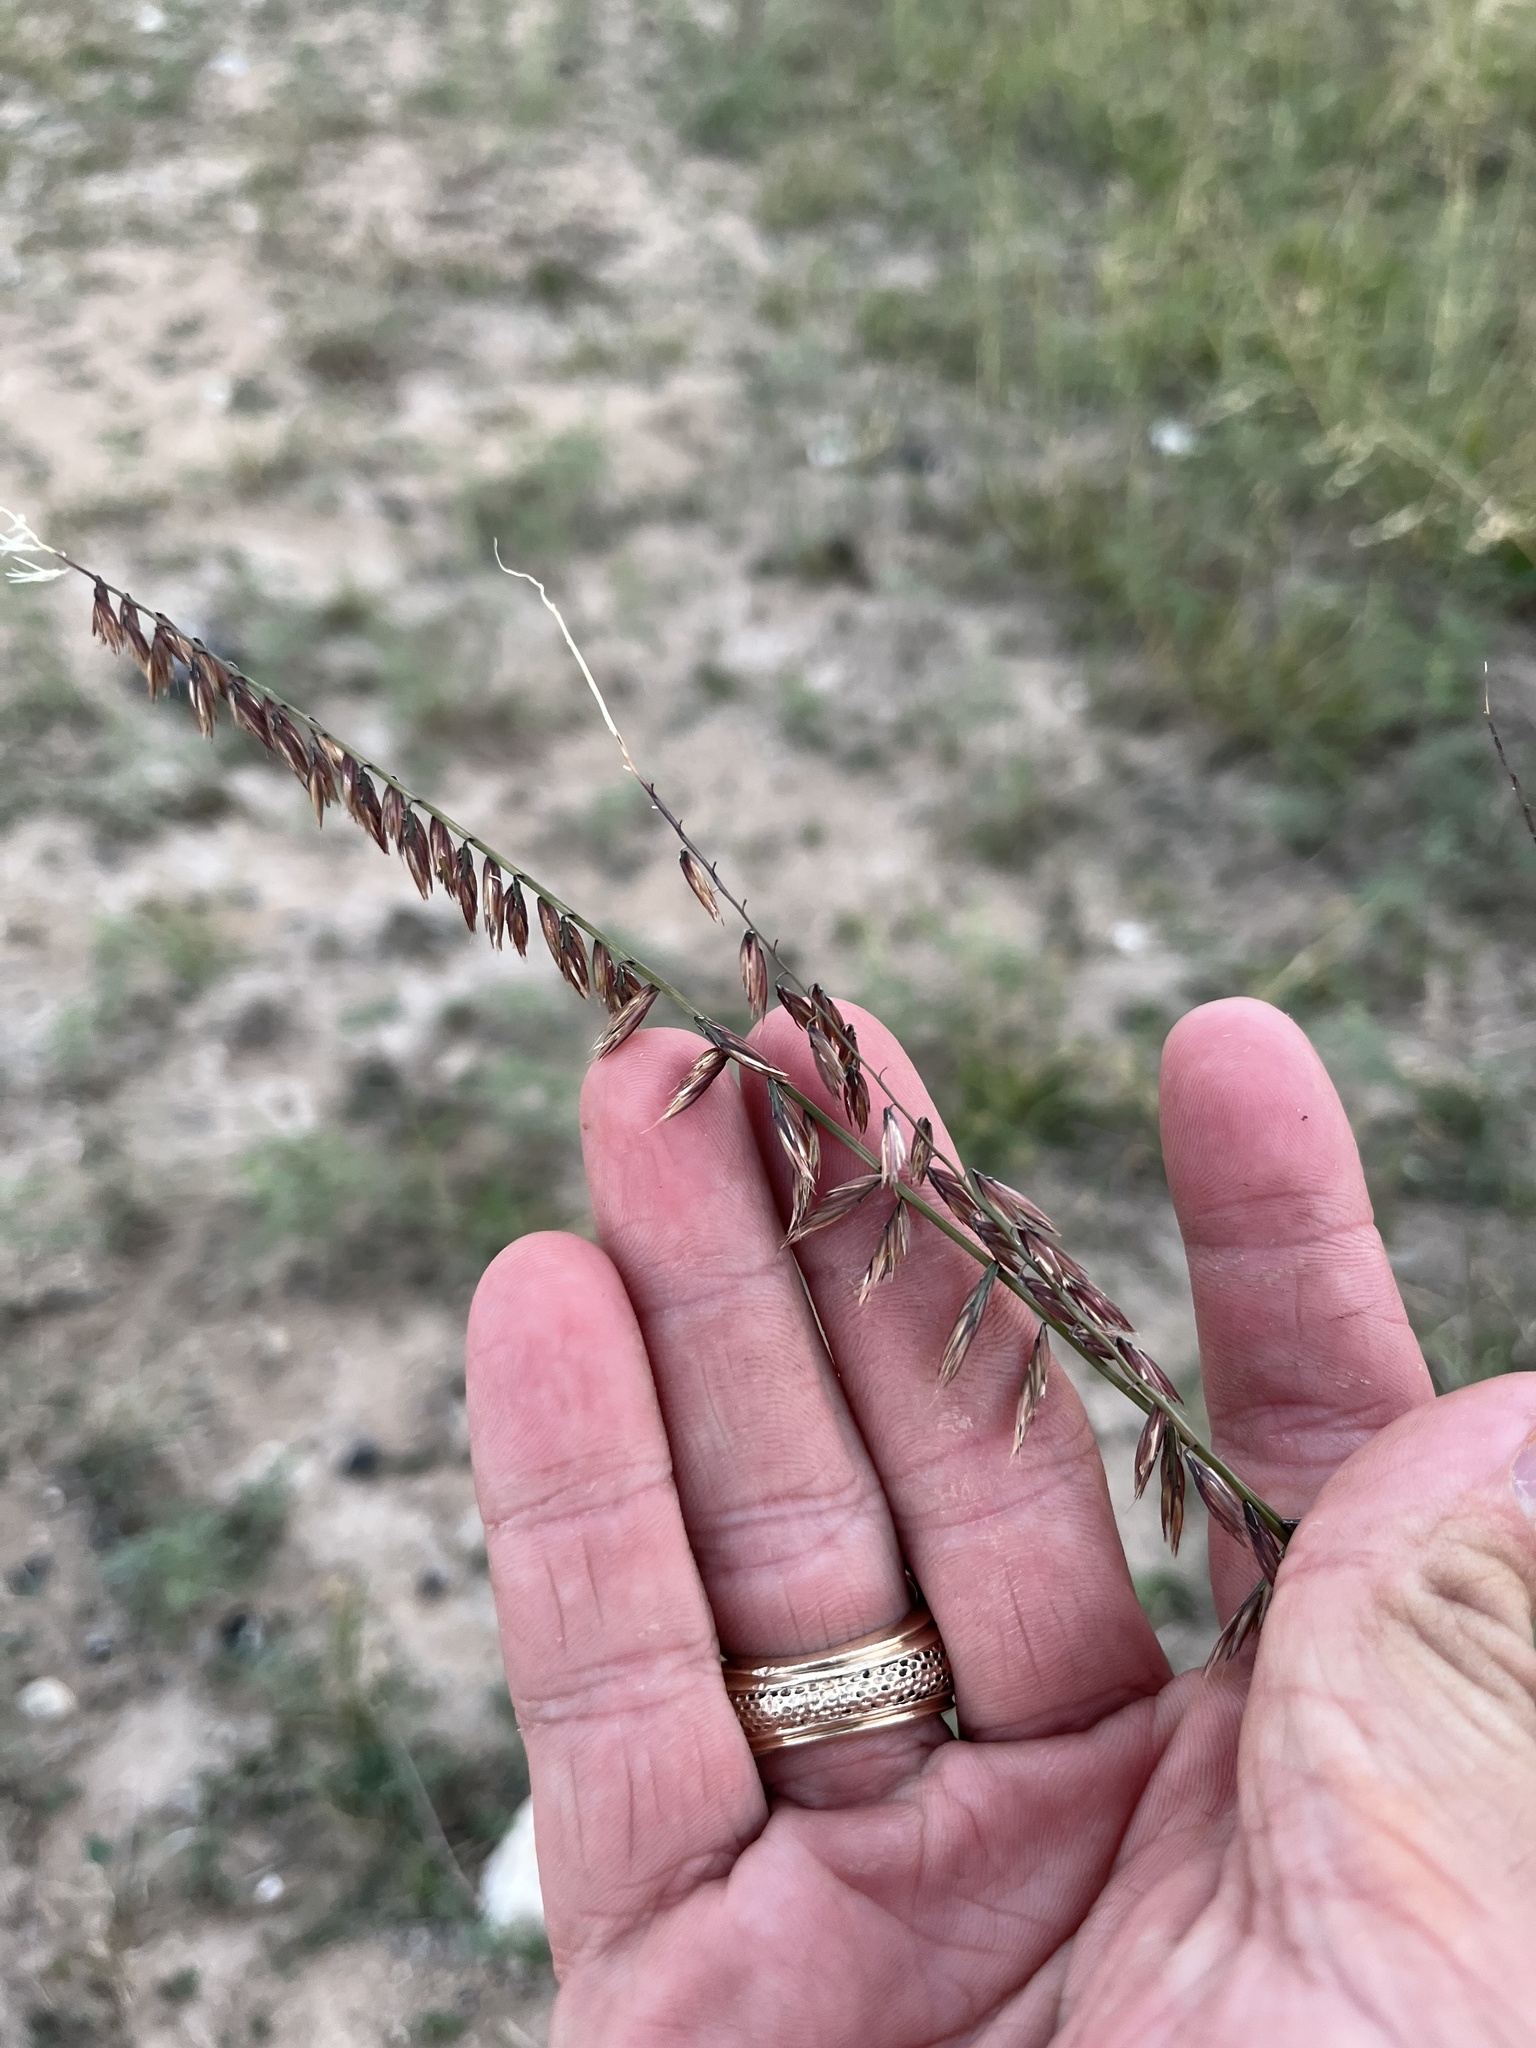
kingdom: Plantae
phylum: Tracheophyta
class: Liliopsida
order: Poales
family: Poaceae
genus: Bouteloua
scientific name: Bouteloua curtipendula
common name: Side-oats grama
